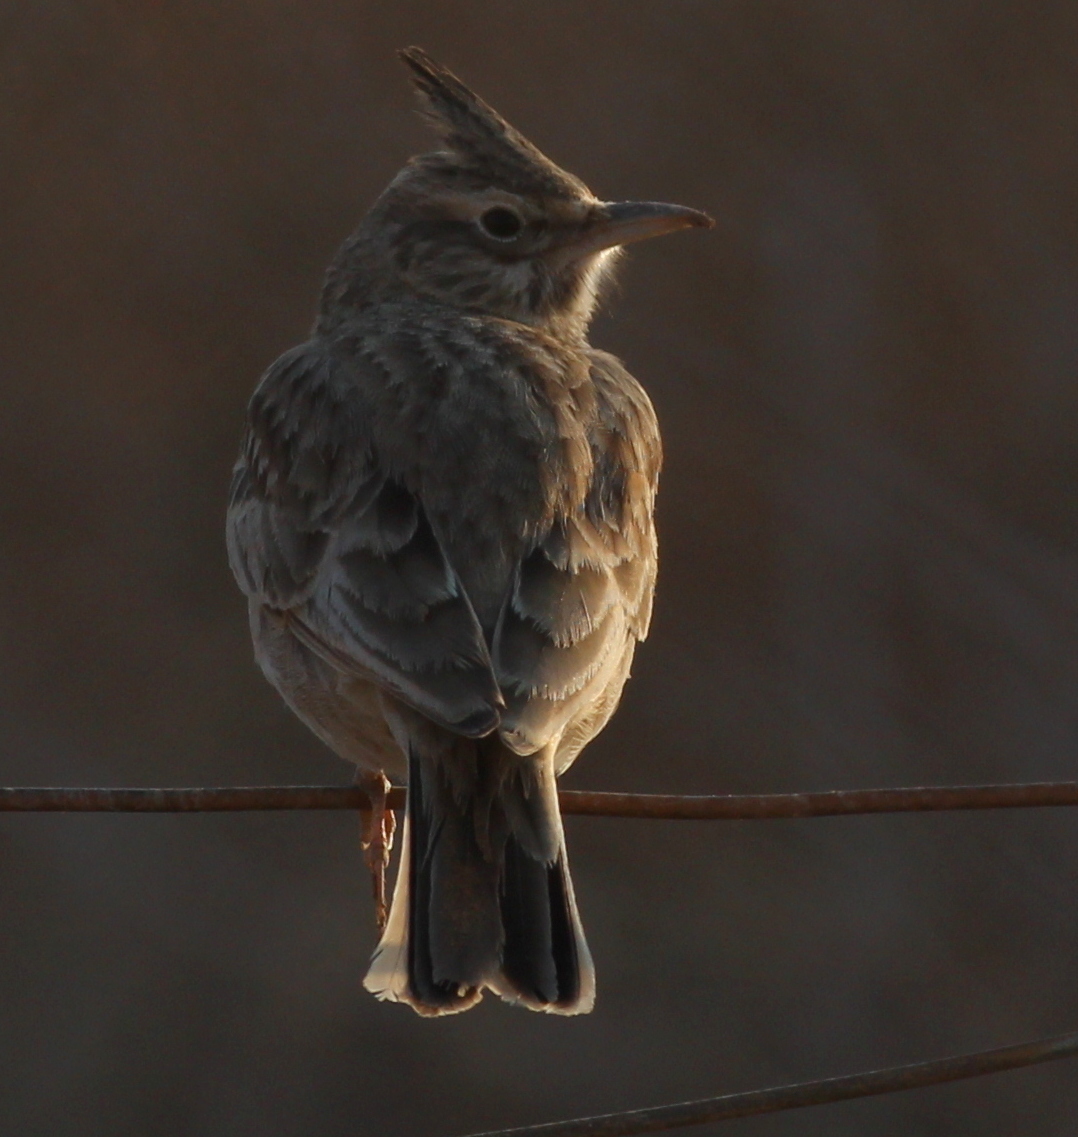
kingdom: Animalia
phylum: Chordata
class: Aves
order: Passeriformes
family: Alaudidae
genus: Galerida
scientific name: Galerida cristata
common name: Crested lark
